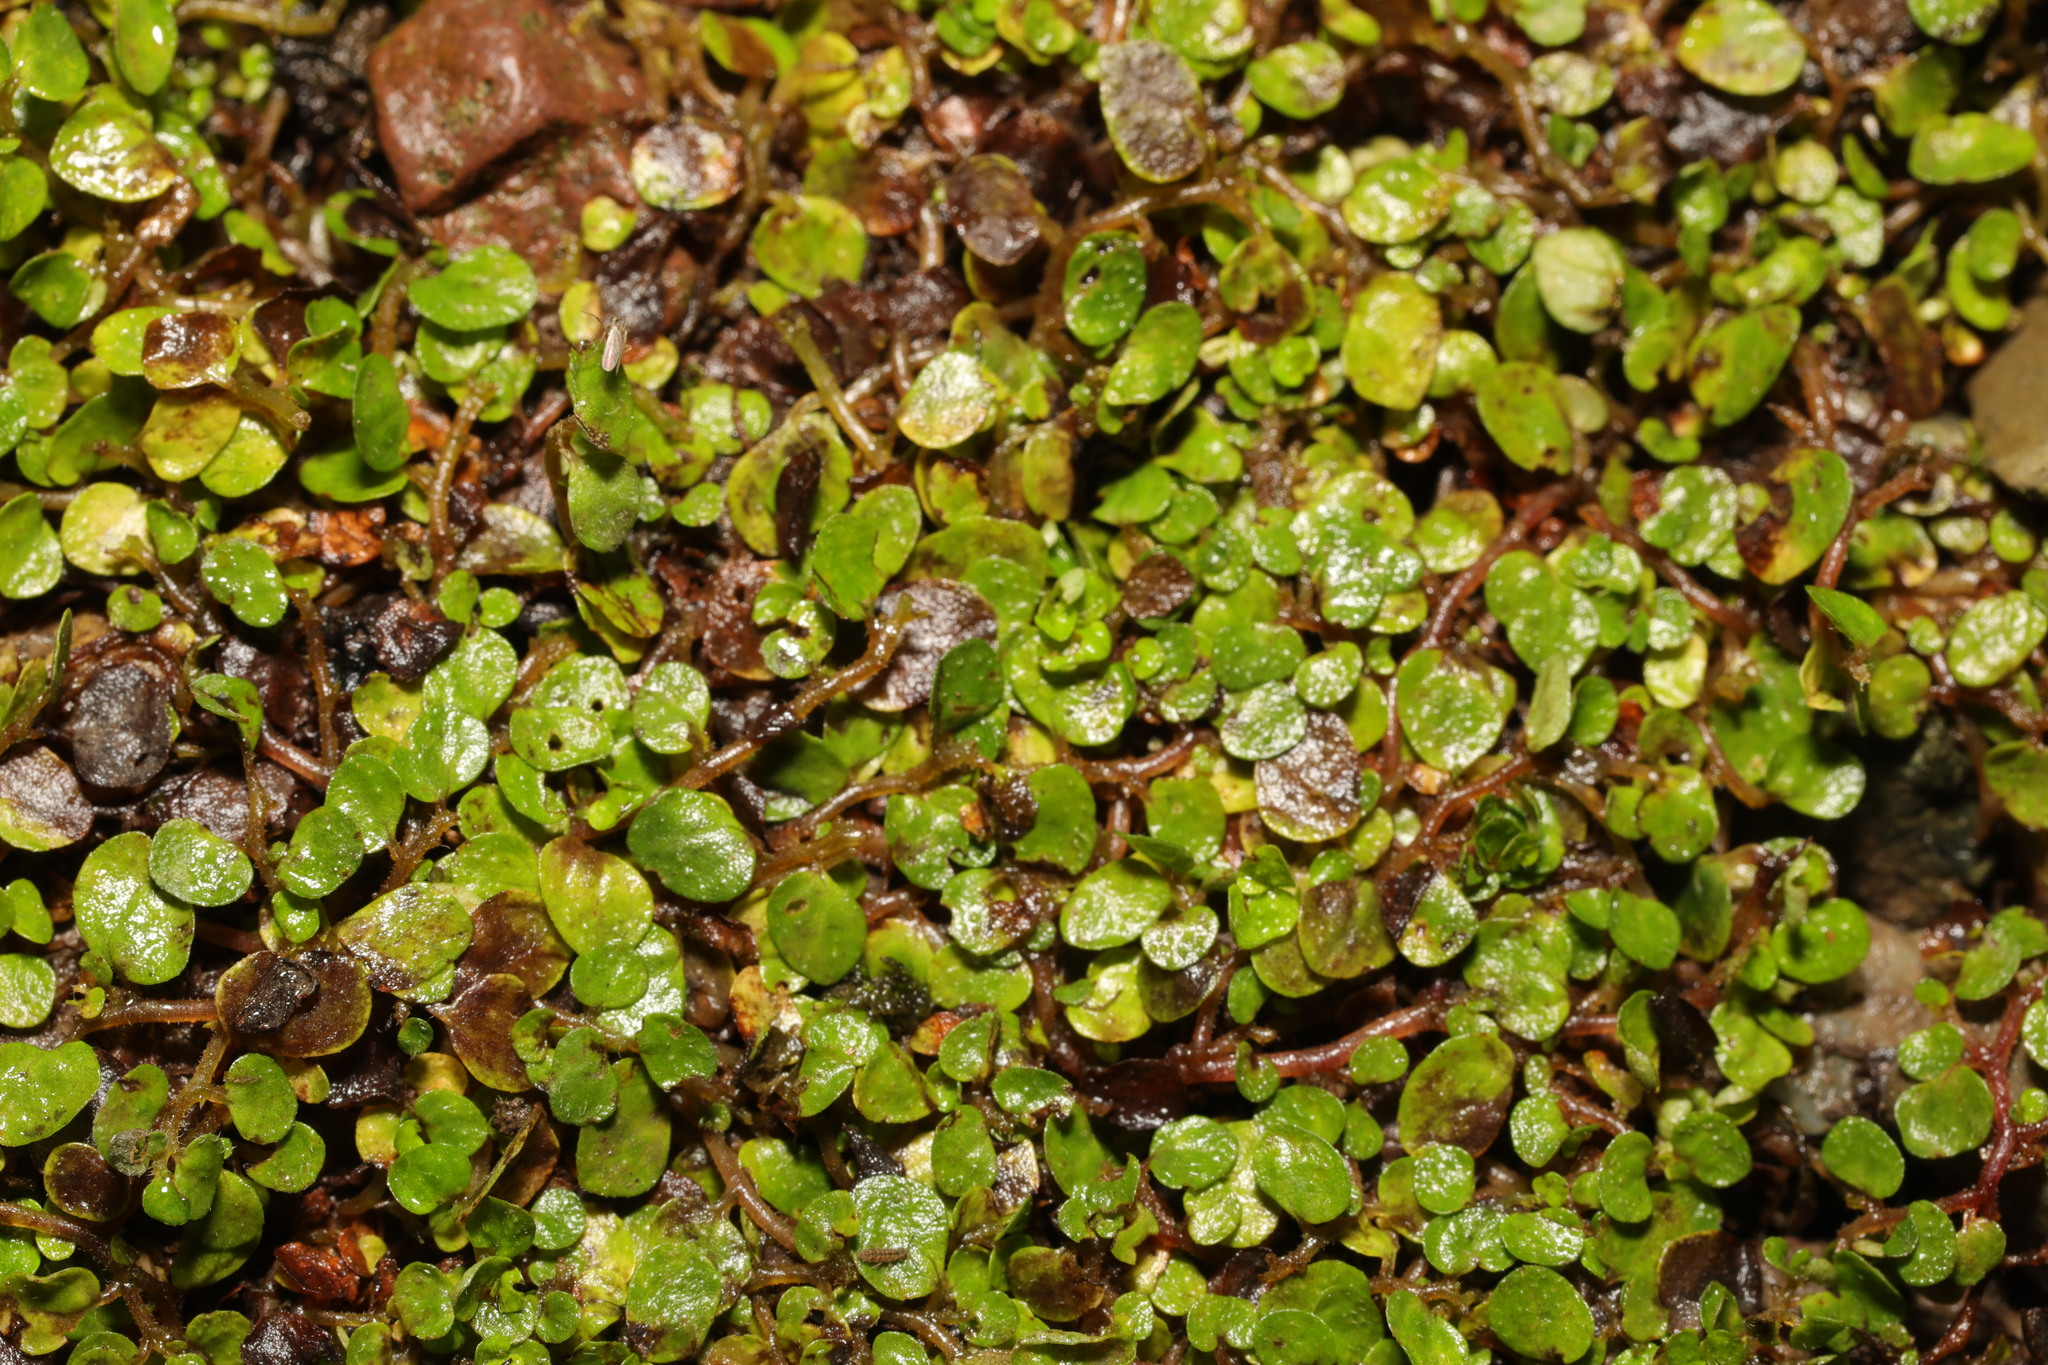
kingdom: Plantae
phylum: Tracheophyta
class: Magnoliopsida
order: Rosales
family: Urticaceae
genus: Soleirolia
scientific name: Soleirolia soleirolii
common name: Mind-your-own-business
